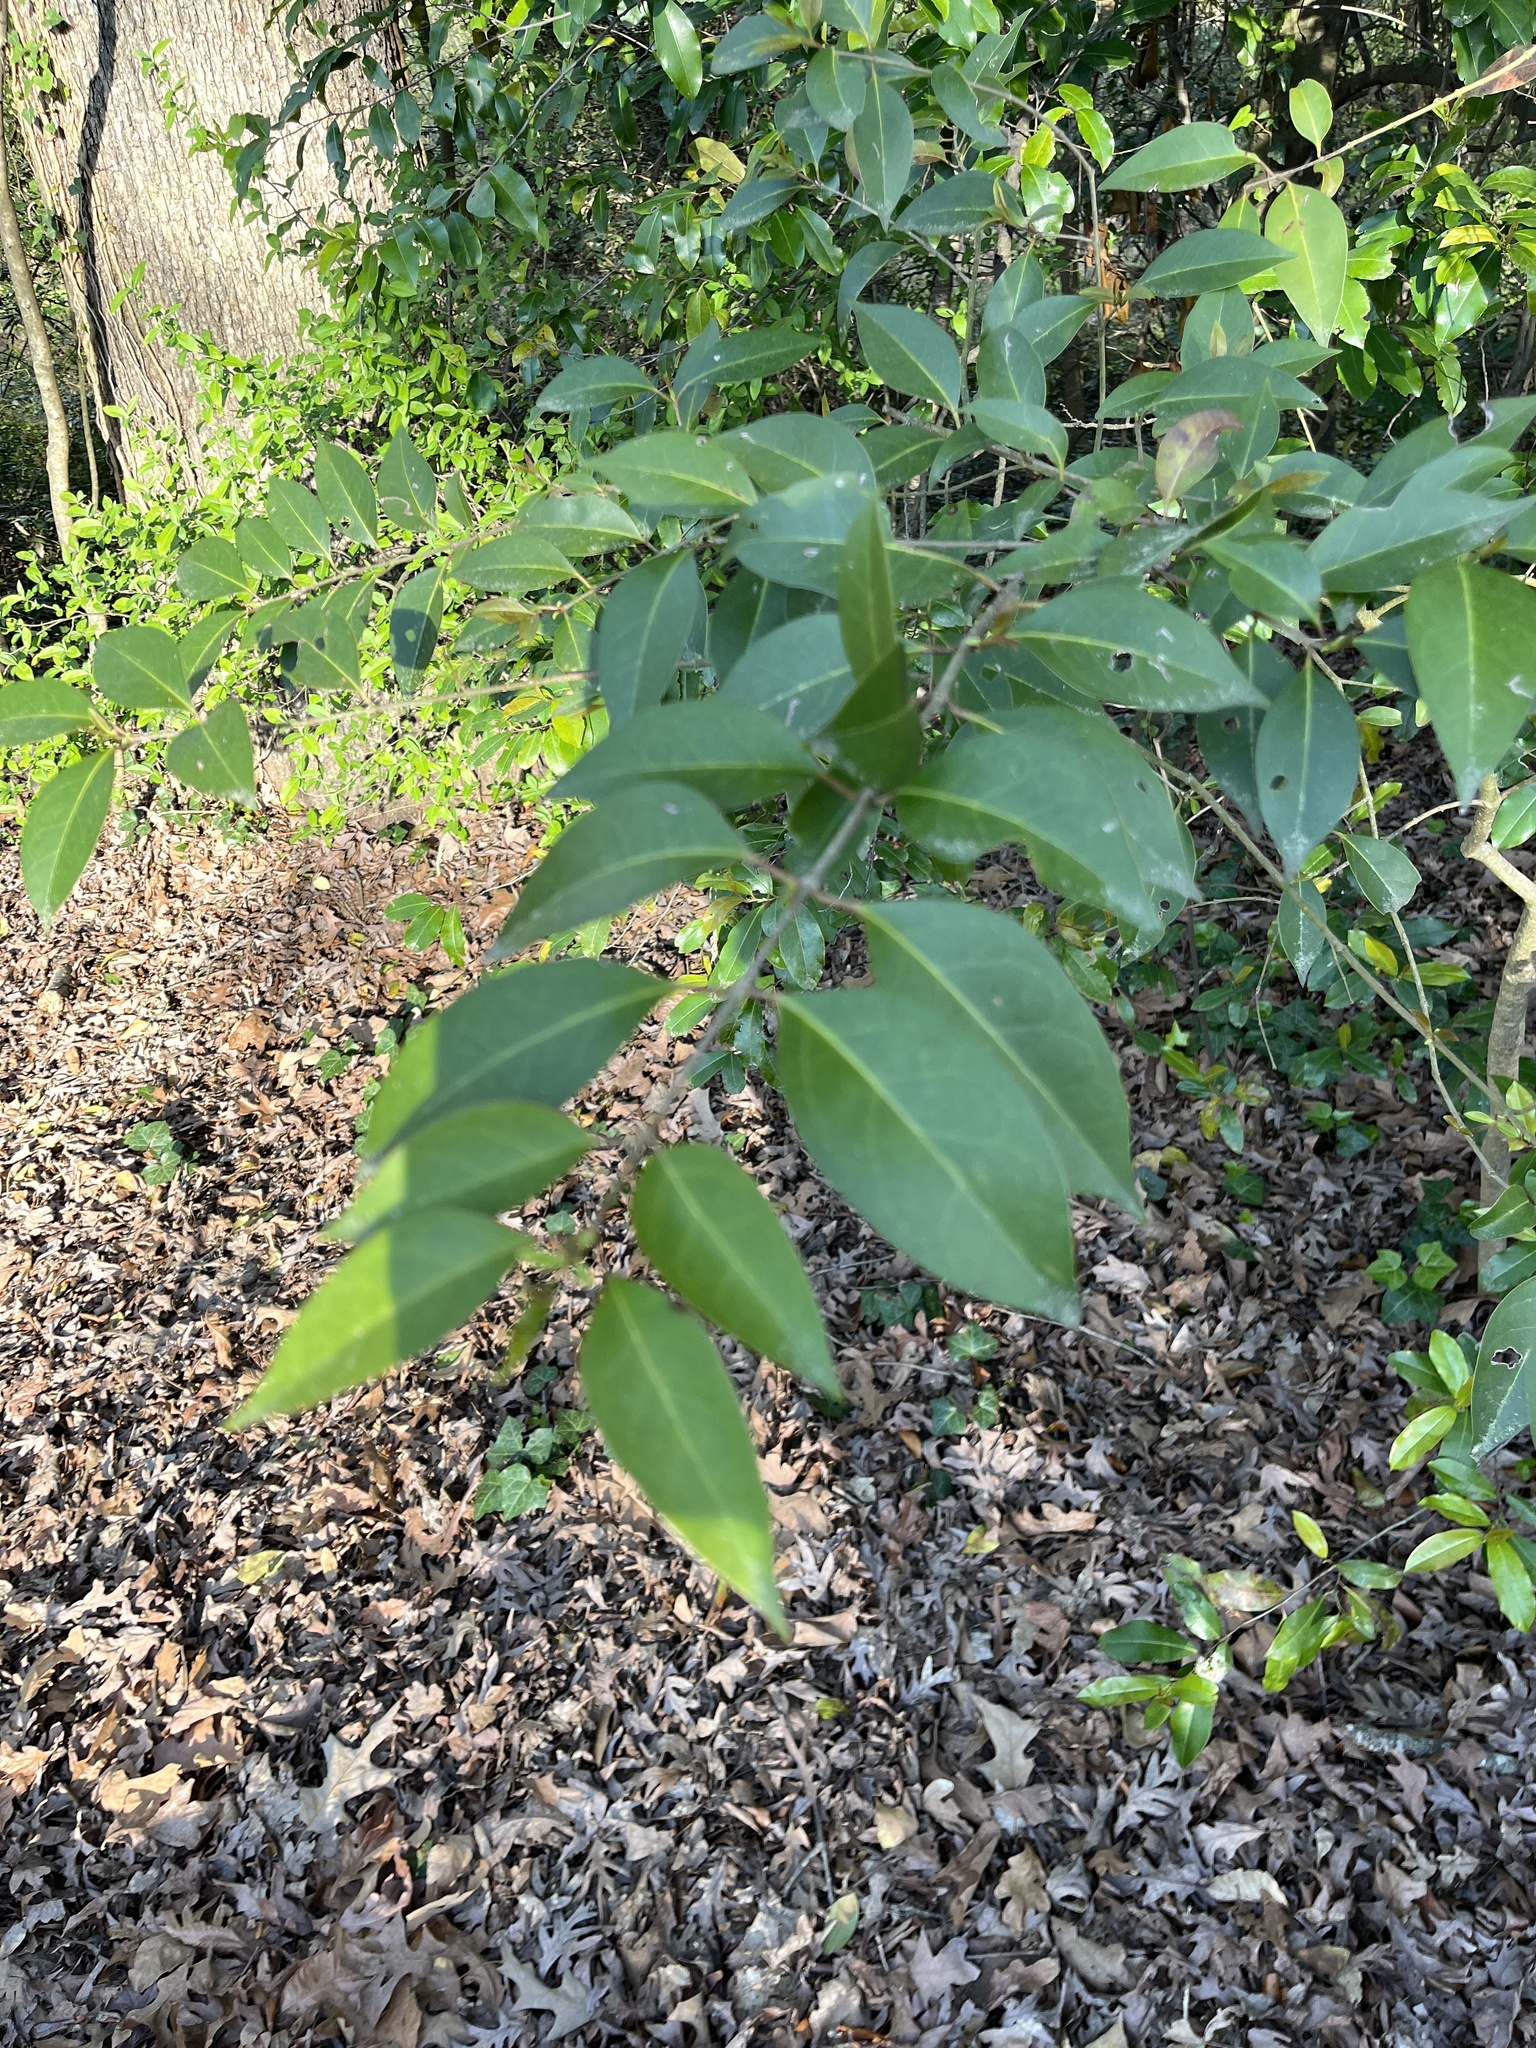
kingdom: Plantae
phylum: Tracheophyta
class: Magnoliopsida
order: Lamiales
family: Oleaceae
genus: Ligustrum
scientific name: Ligustrum lucidum
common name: Glossy privet
